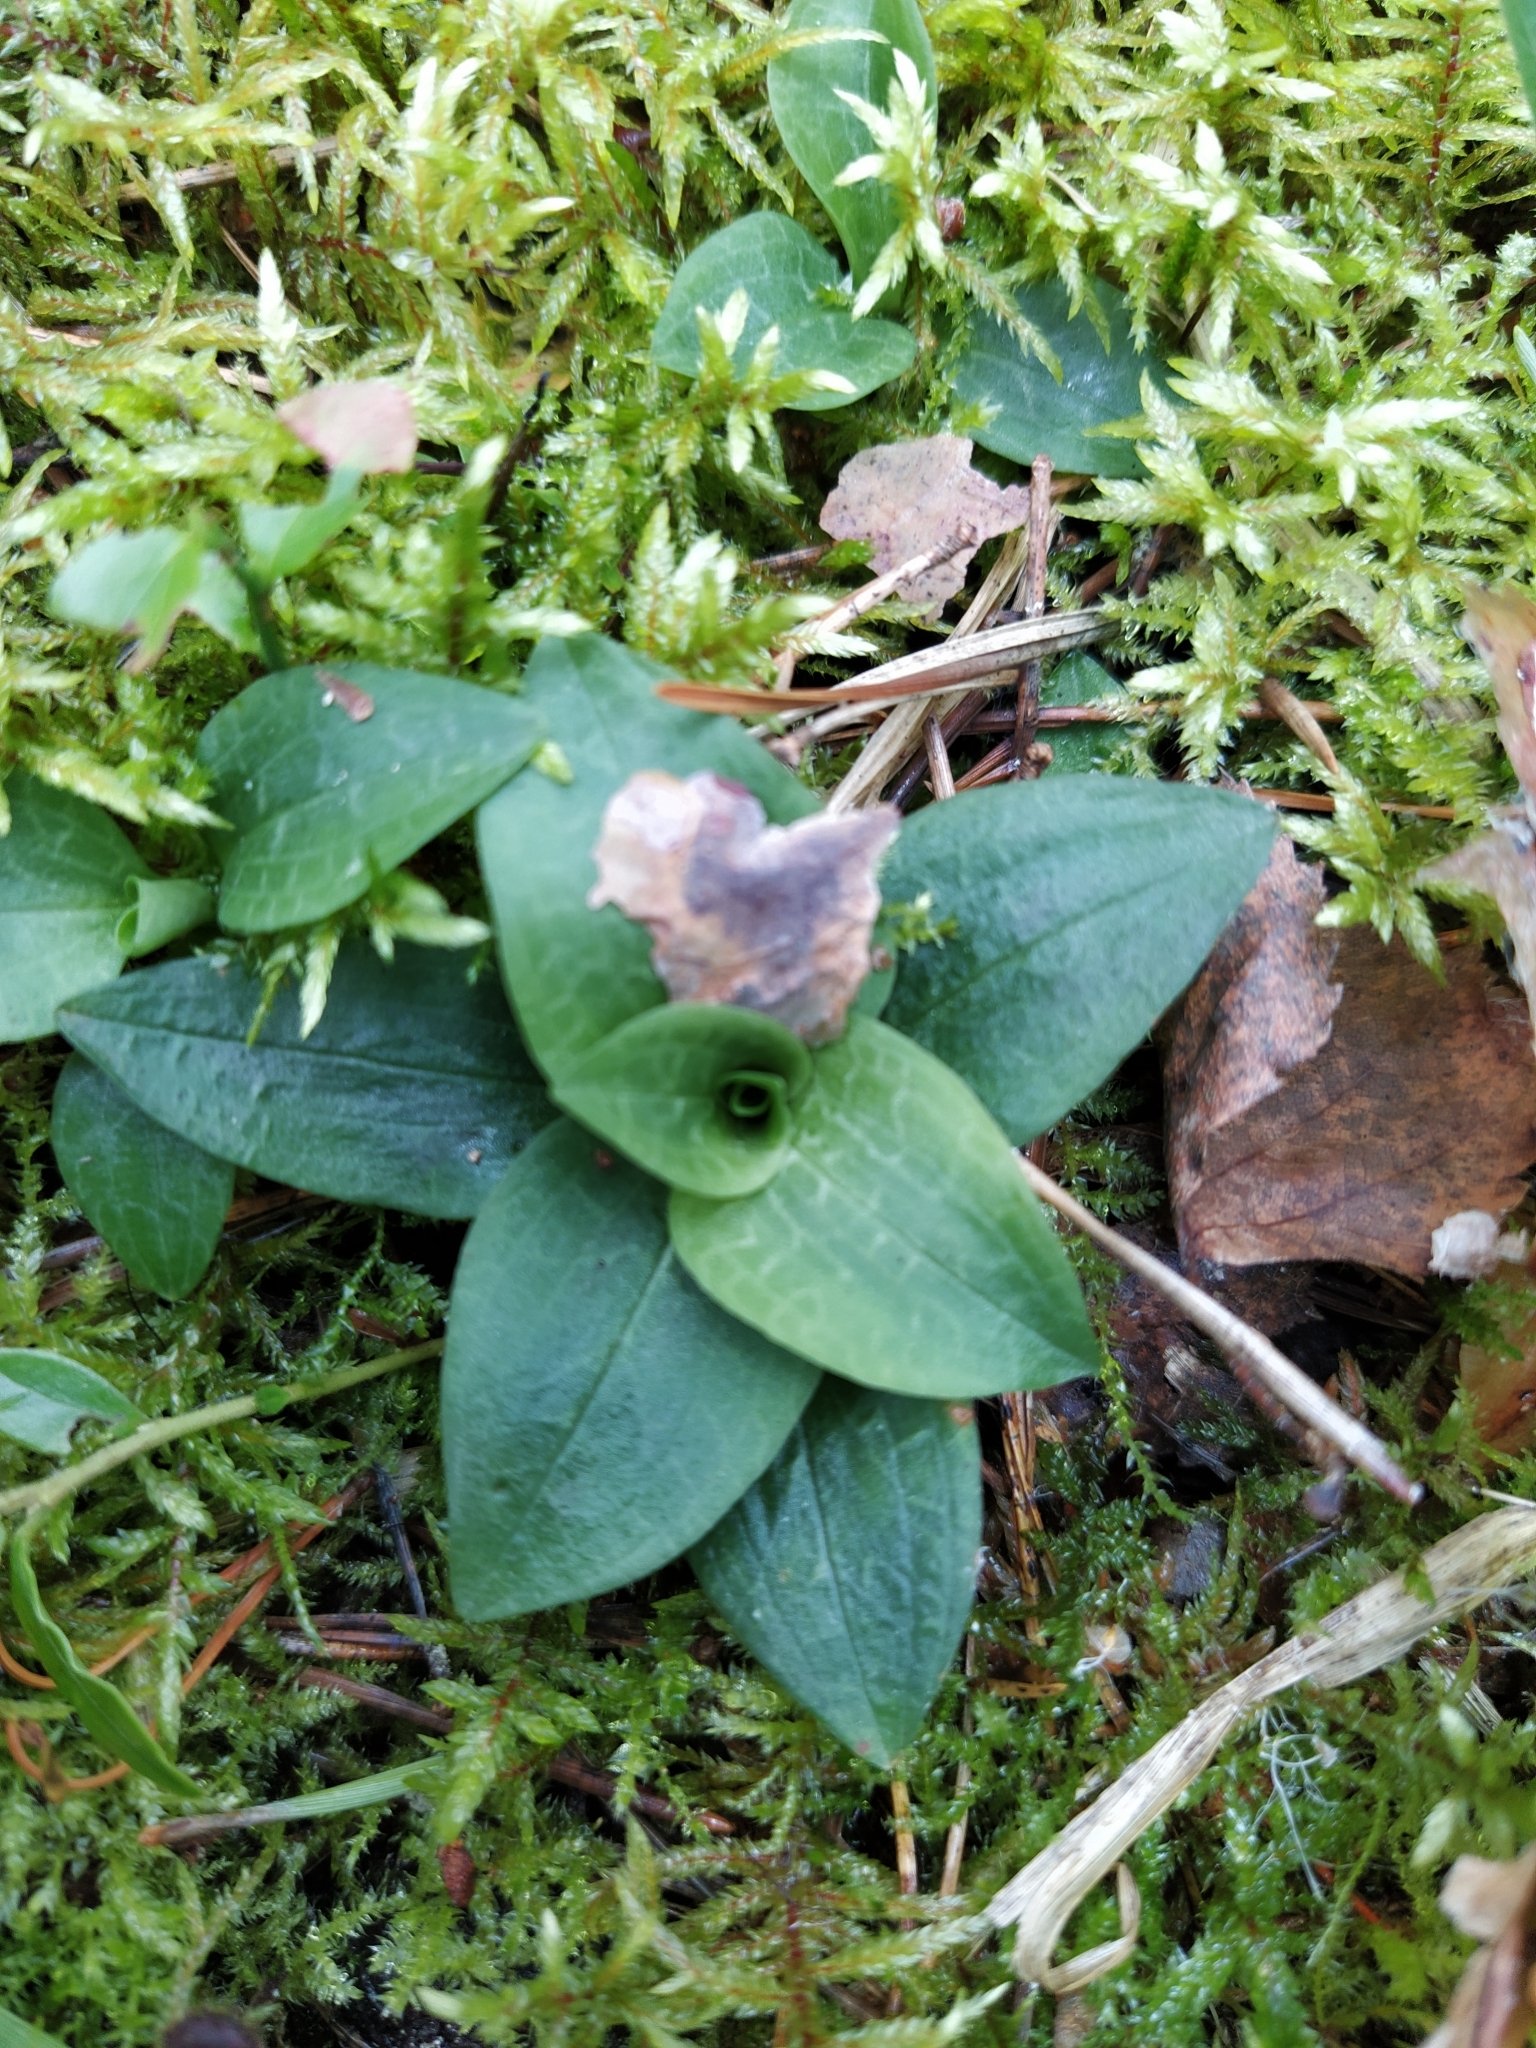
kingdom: Plantae
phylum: Tracheophyta
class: Liliopsida
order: Asparagales
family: Orchidaceae
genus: Goodyera
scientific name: Goodyera repens
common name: Creeping lady's-tresses
